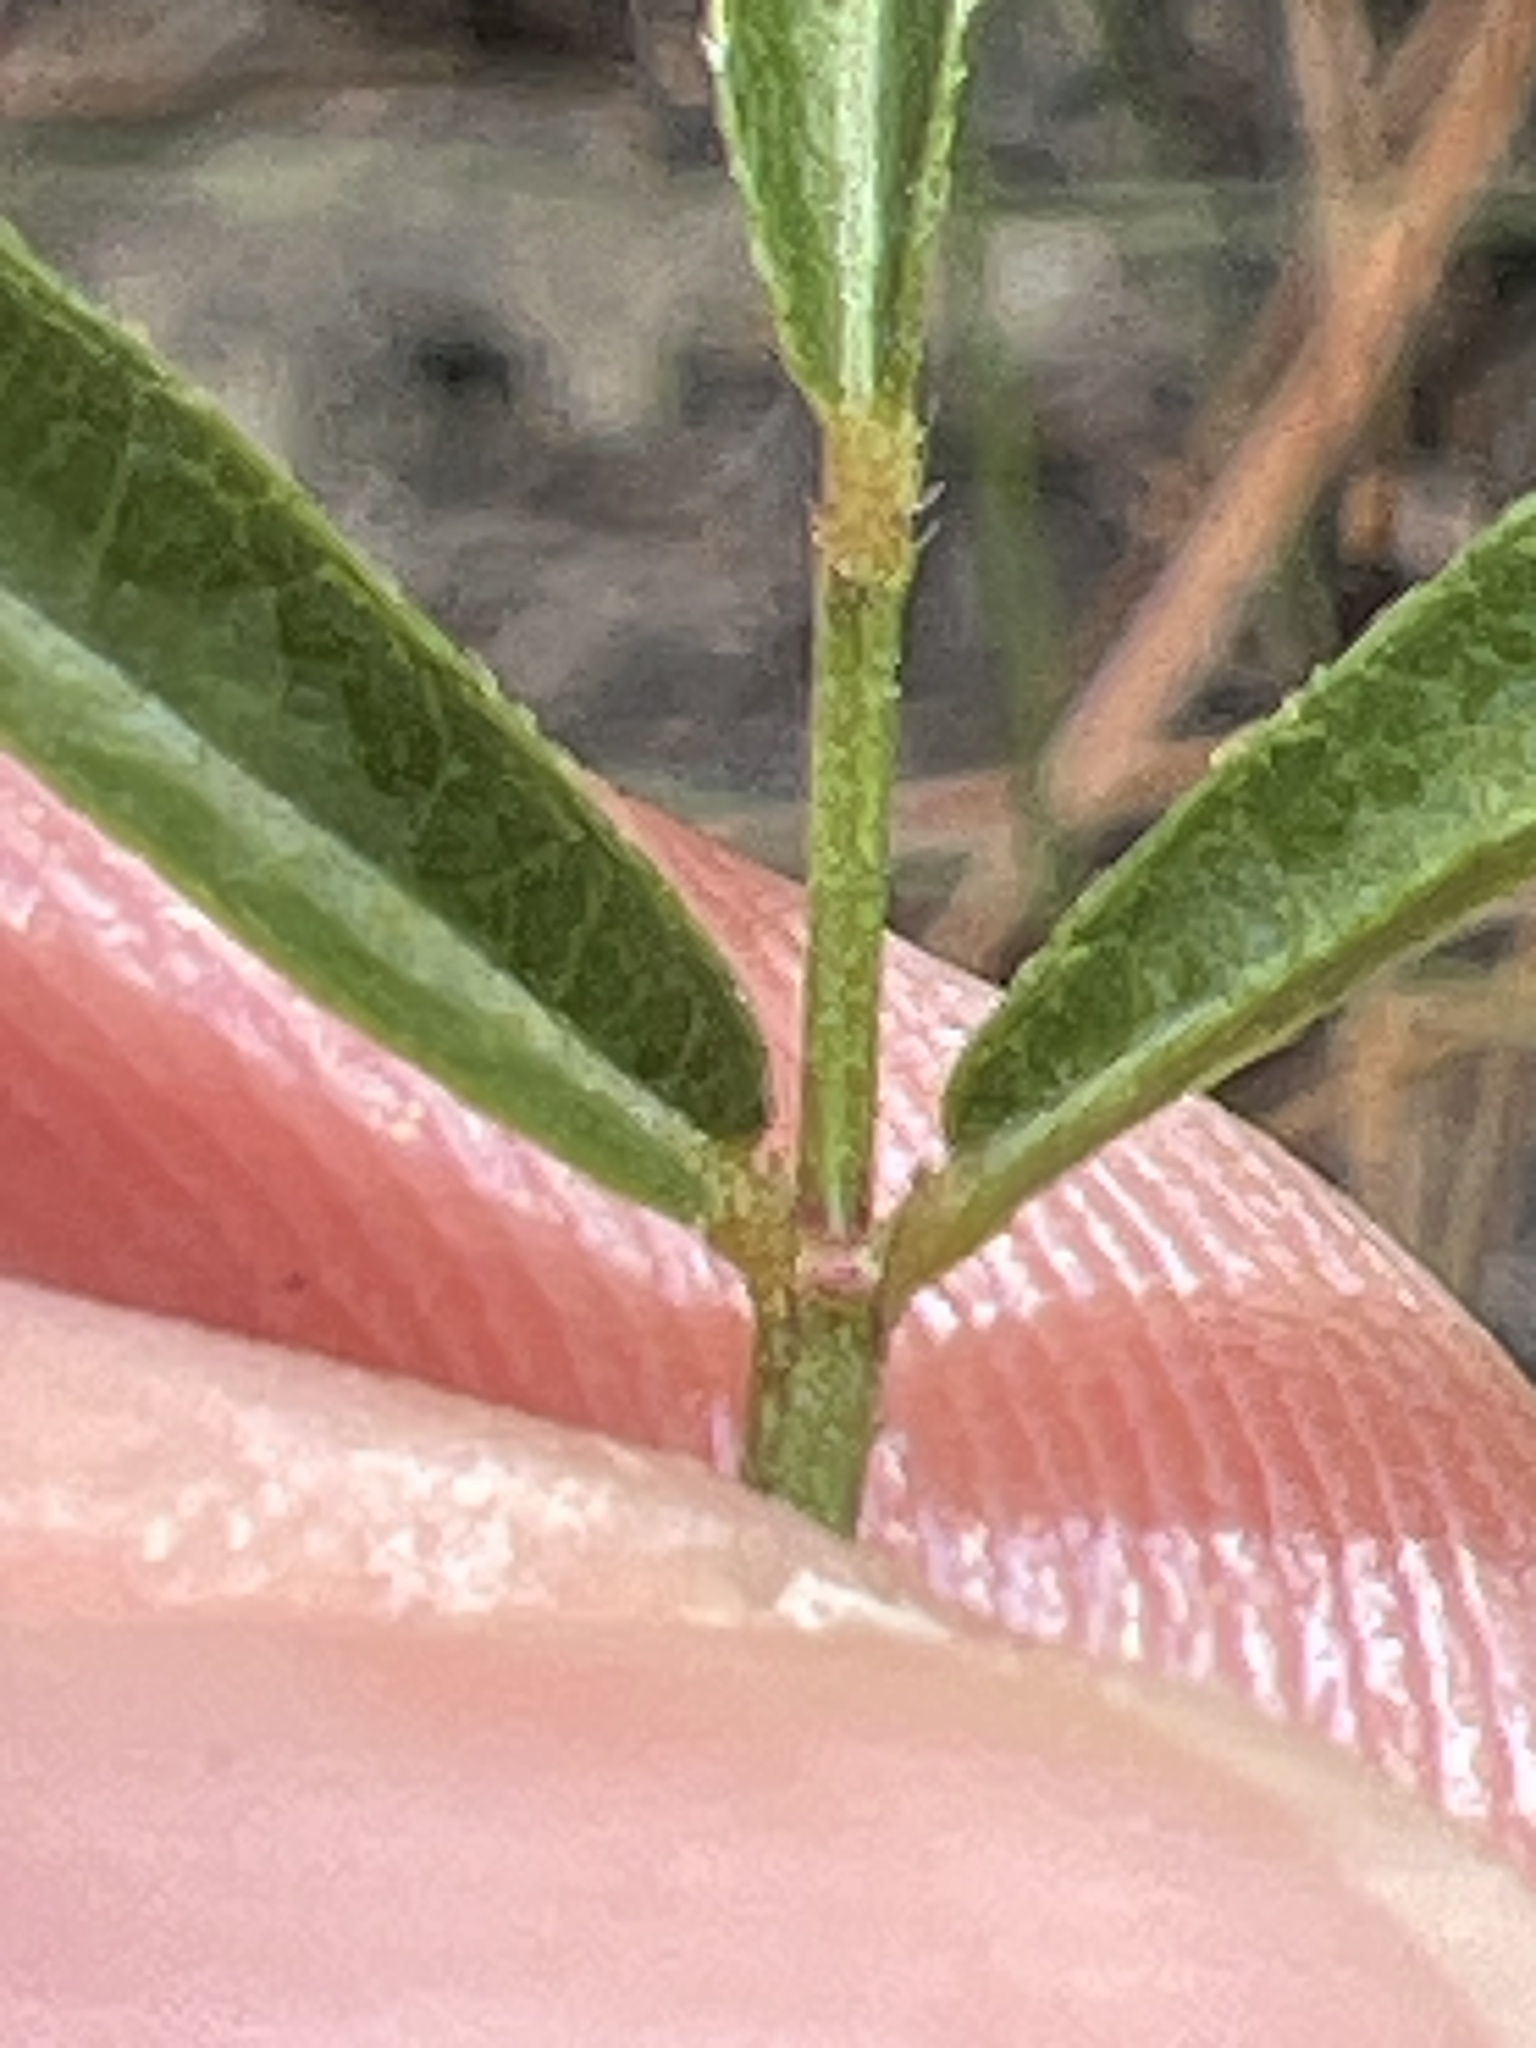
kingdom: Plantae
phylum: Tracheophyta
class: Magnoliopsida
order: Fabales
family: Fabaceae
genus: Lespedeza
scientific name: Lespedeza angustifolia
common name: Narrow-leaf bush-clover
